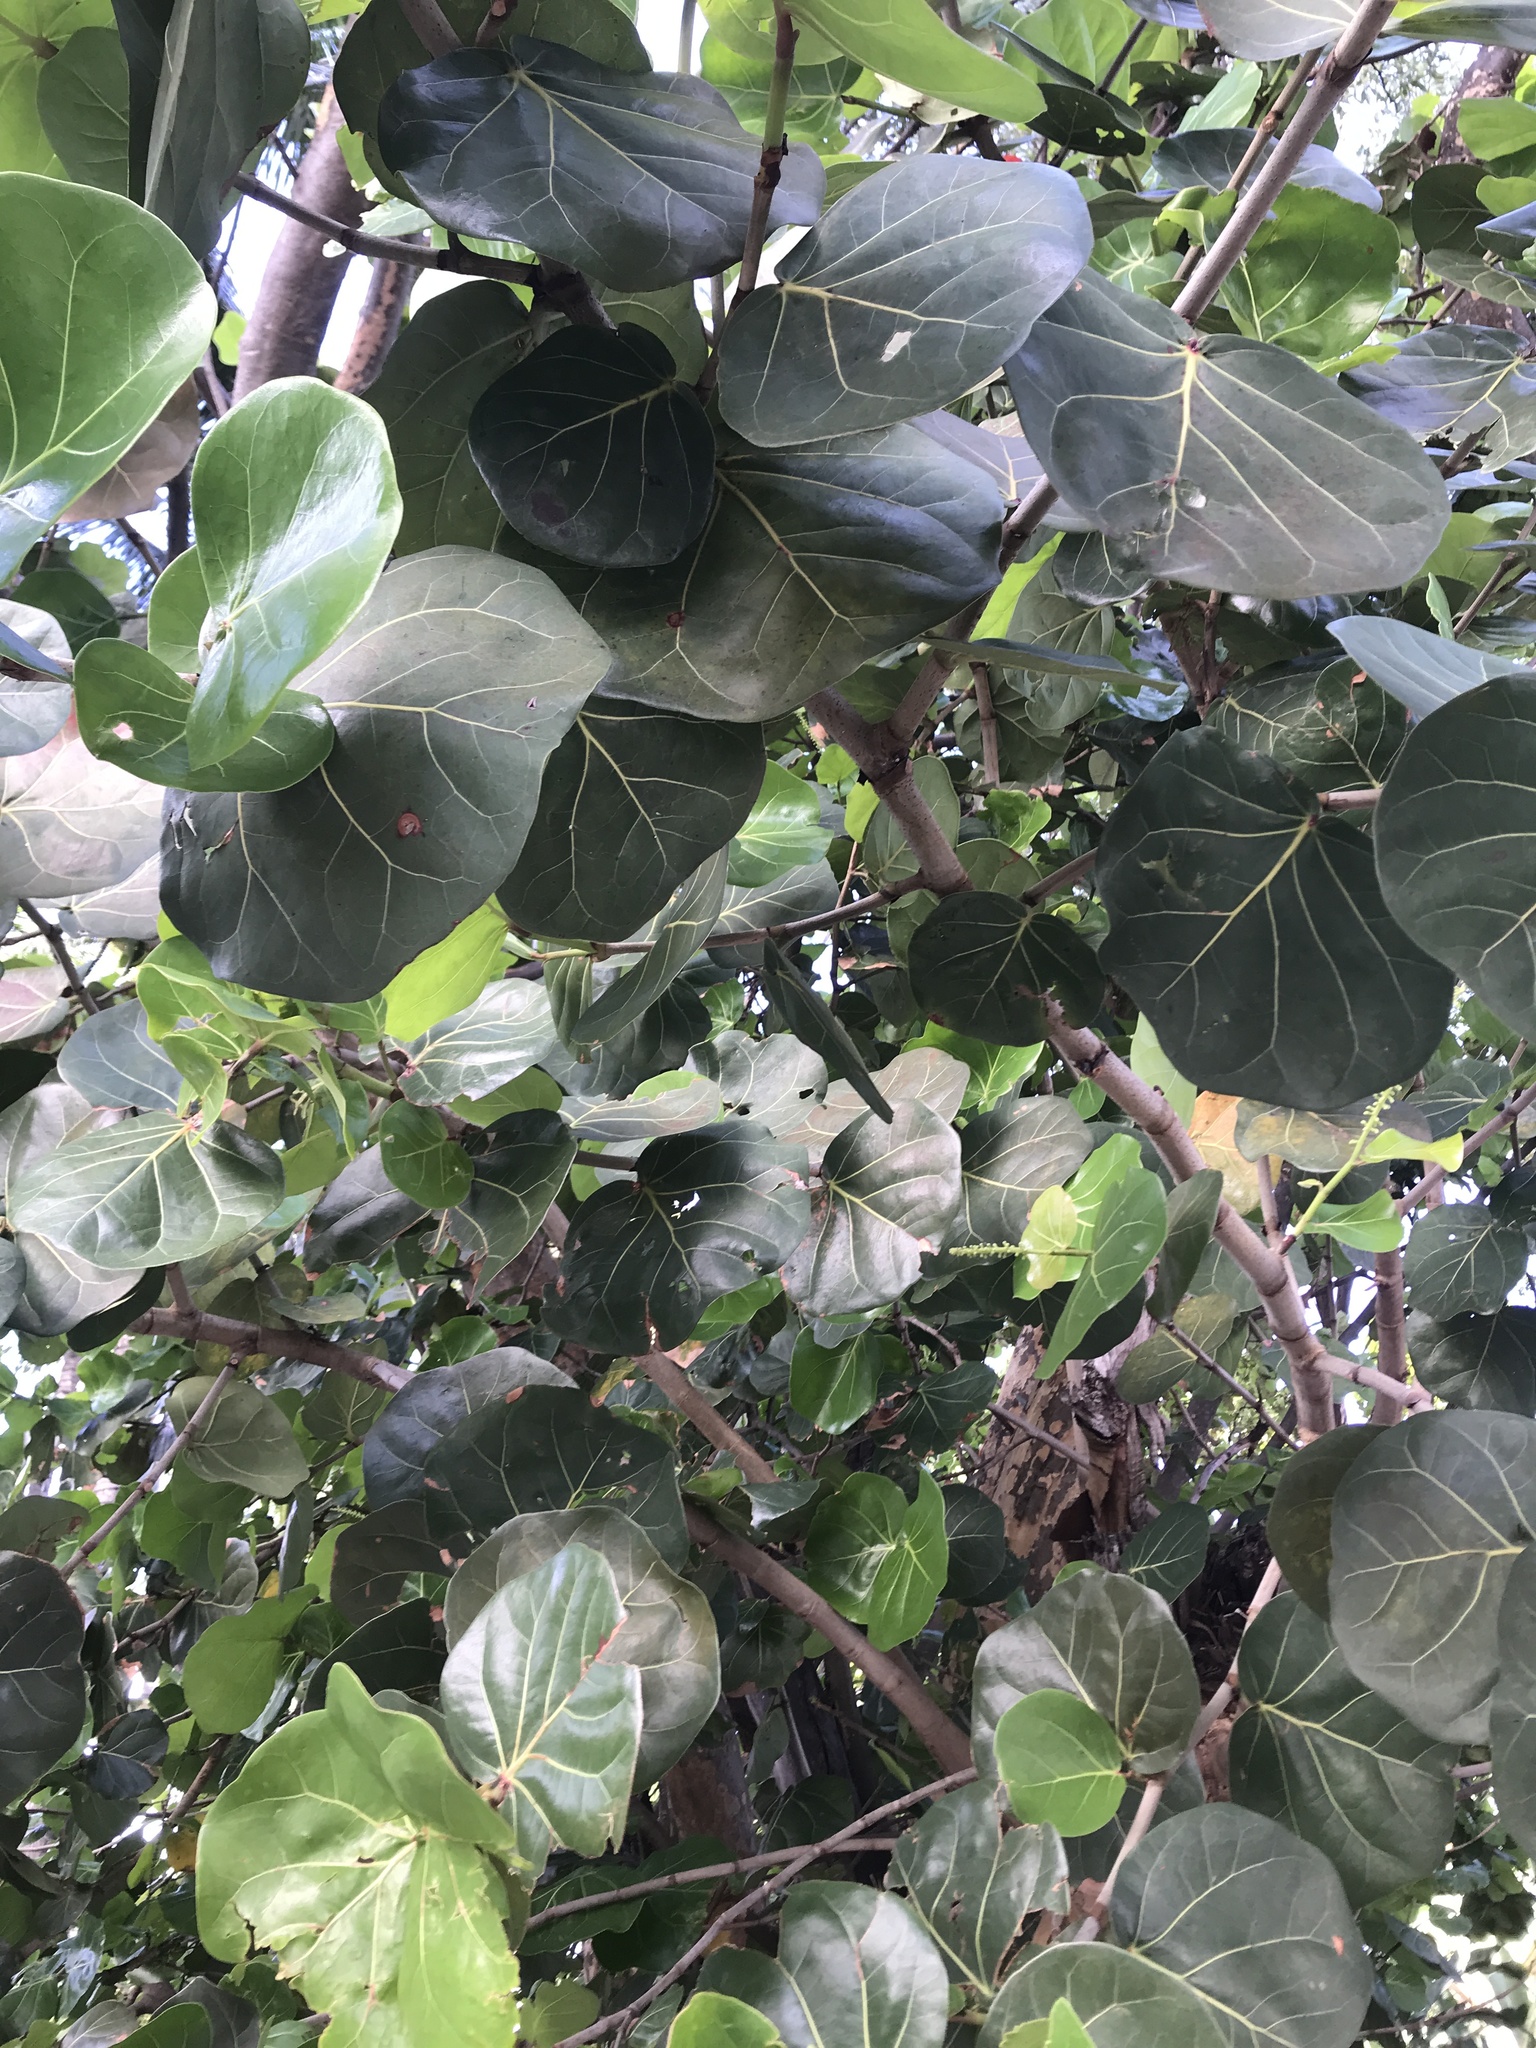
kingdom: Plantae
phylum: Tracheophyta
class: Magnoliopsida
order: Caryophyllales
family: Polygonaceae
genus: Coccoloba
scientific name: Coccoloba uvifera
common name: Seagrape
